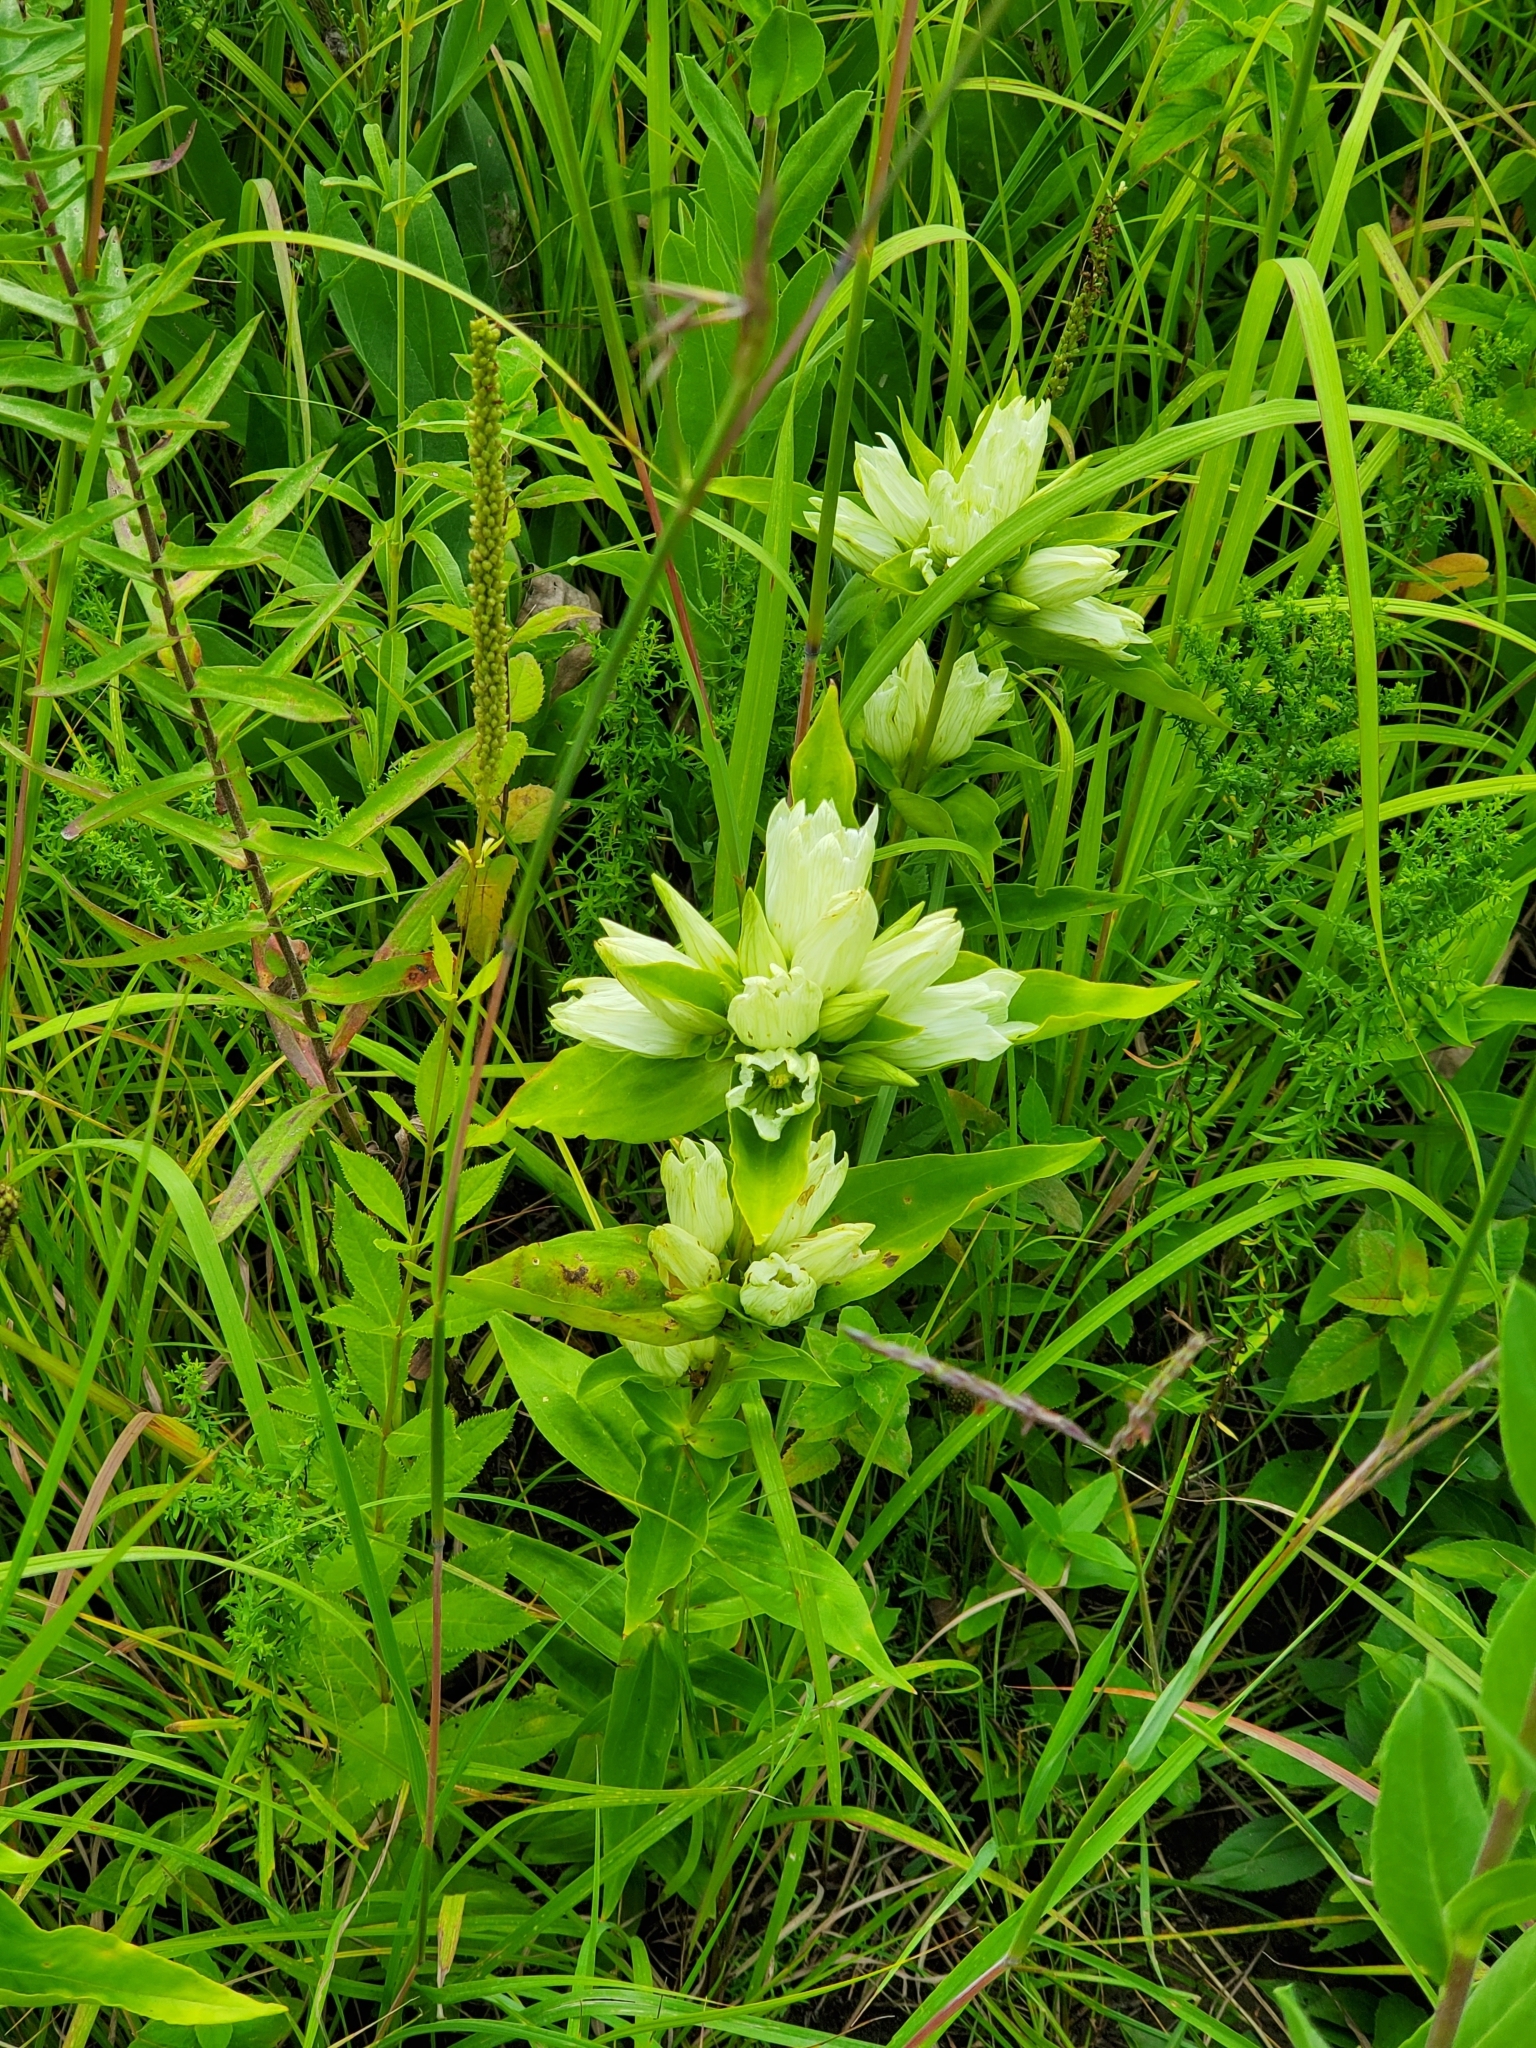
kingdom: Plantae
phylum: Tracheophyta
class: Magnoliopsida
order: Gentianales
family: Gentianaceae
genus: Gentiana
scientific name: Gentiana alba
